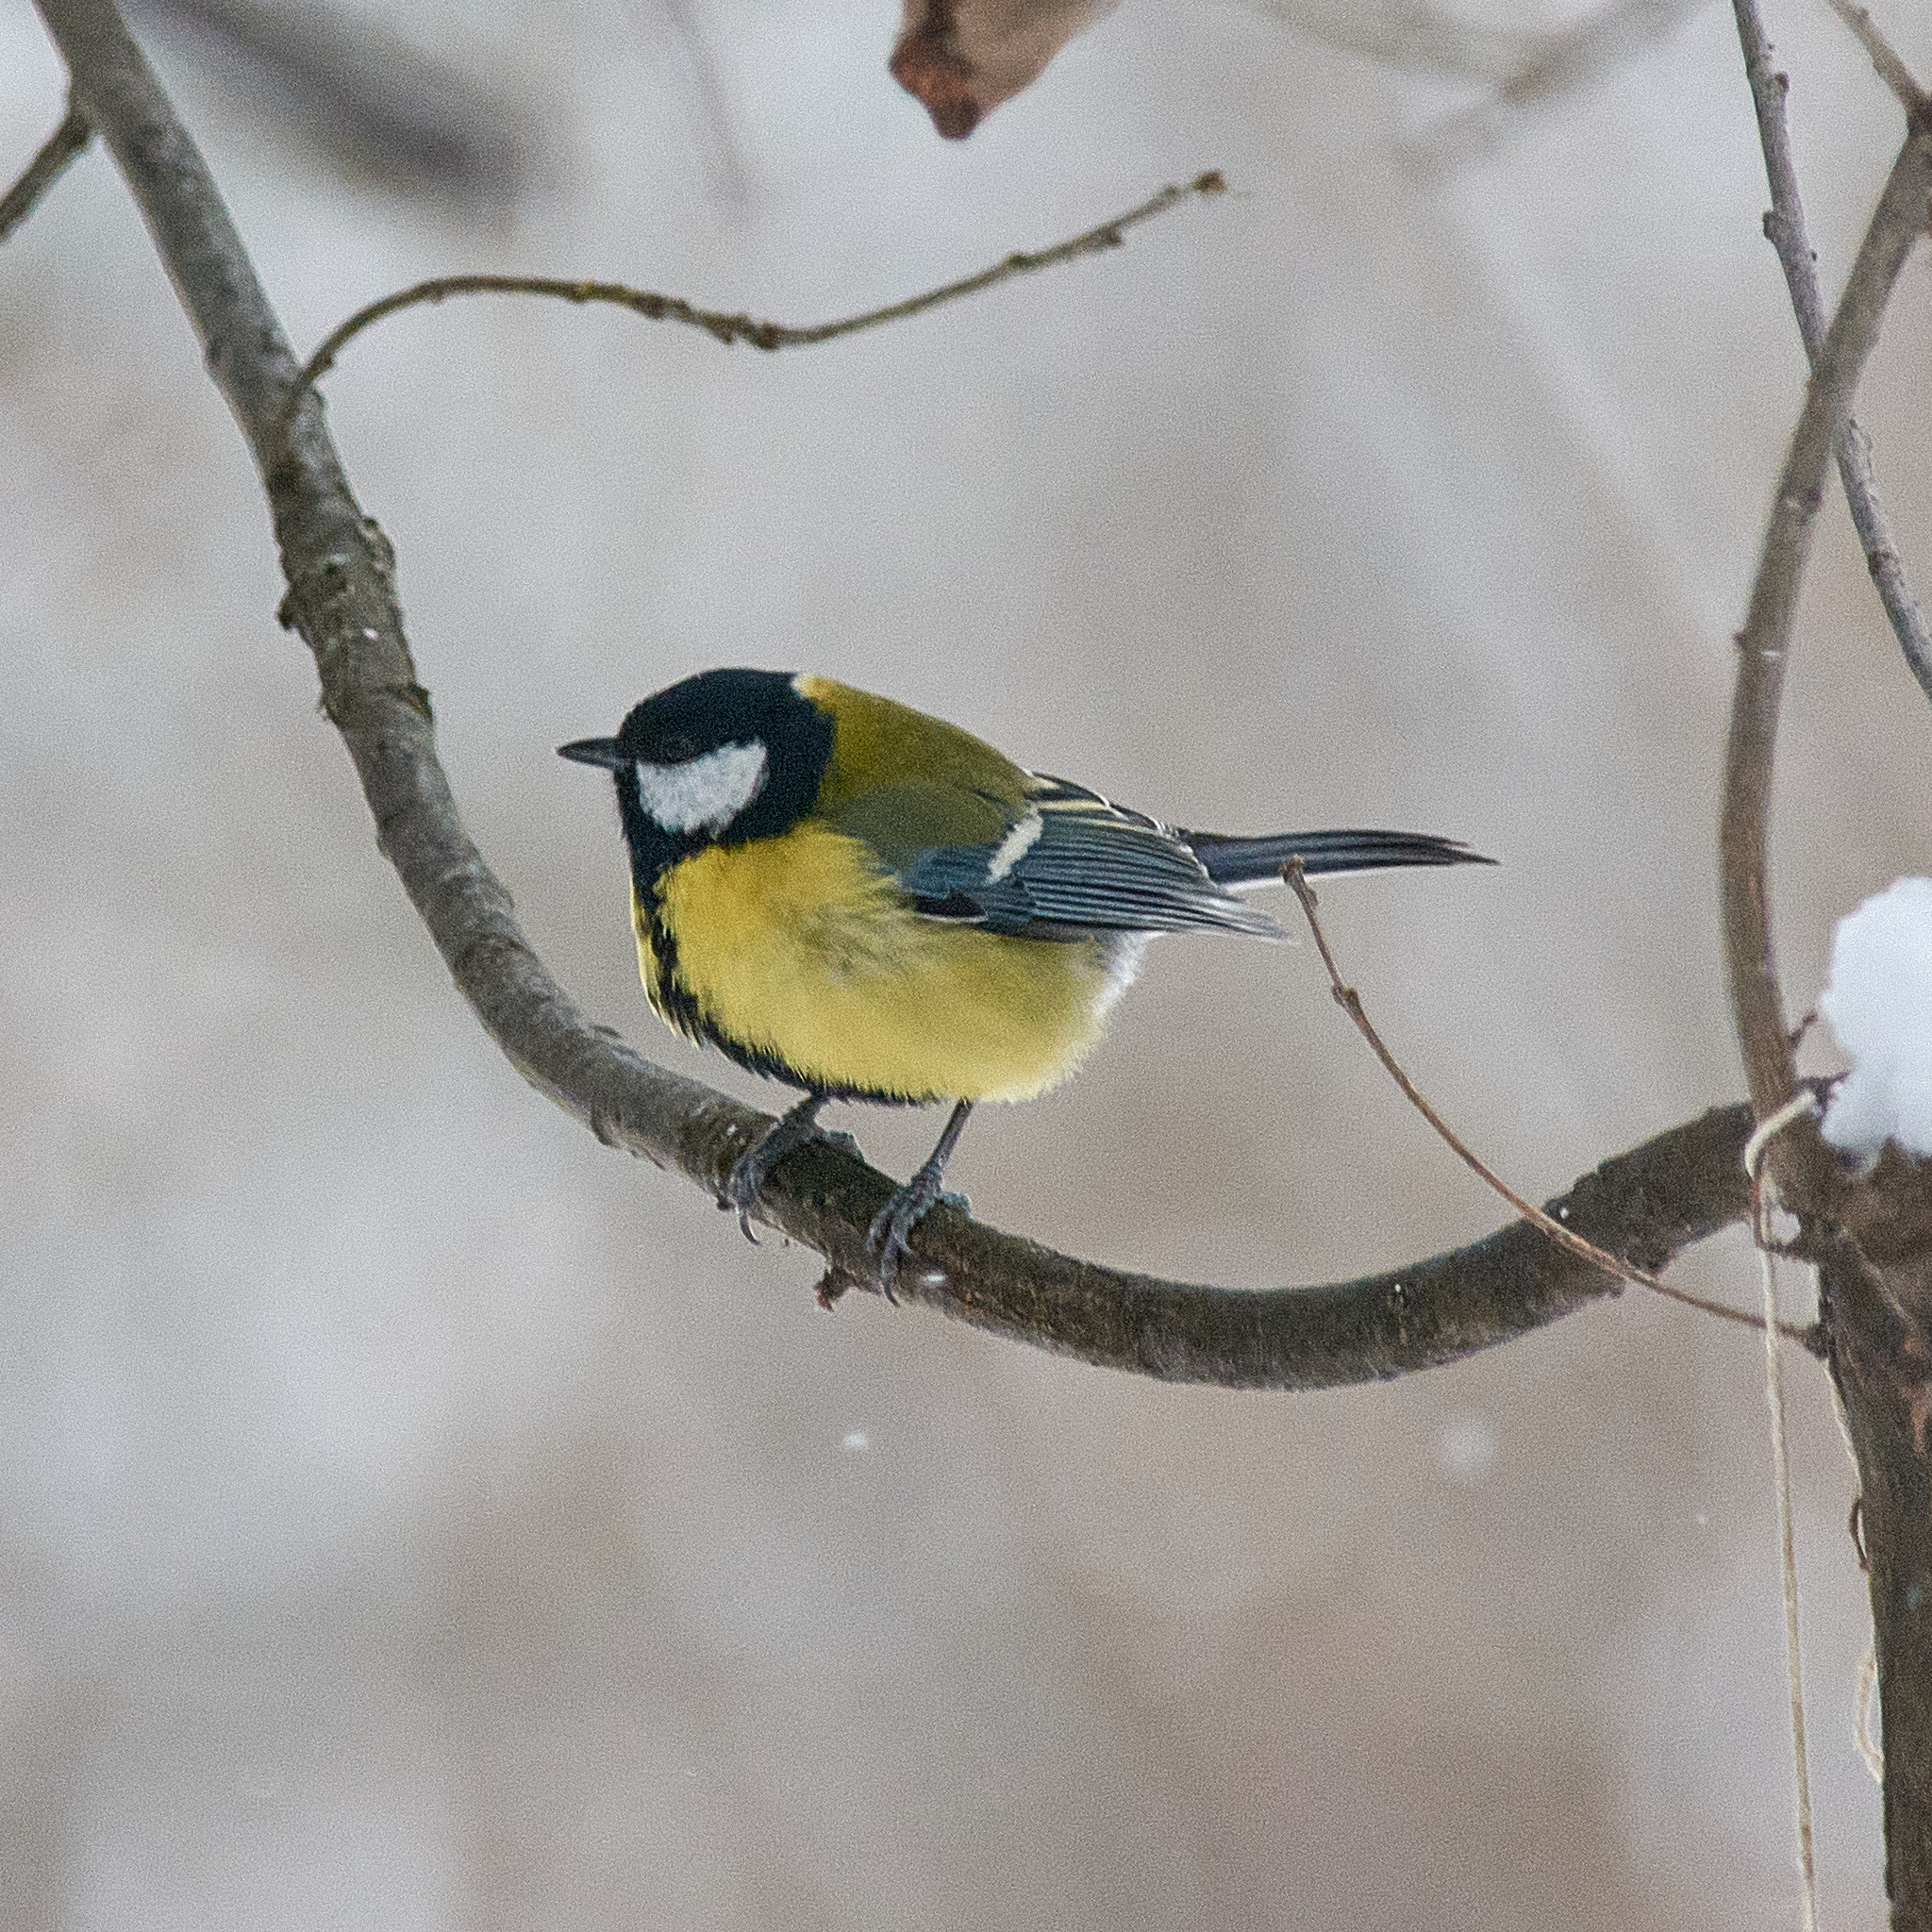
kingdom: Animalia
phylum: Chordata
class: Aves
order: Passeriformes
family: Paridae
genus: Parus
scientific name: Parus major
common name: Great tit
